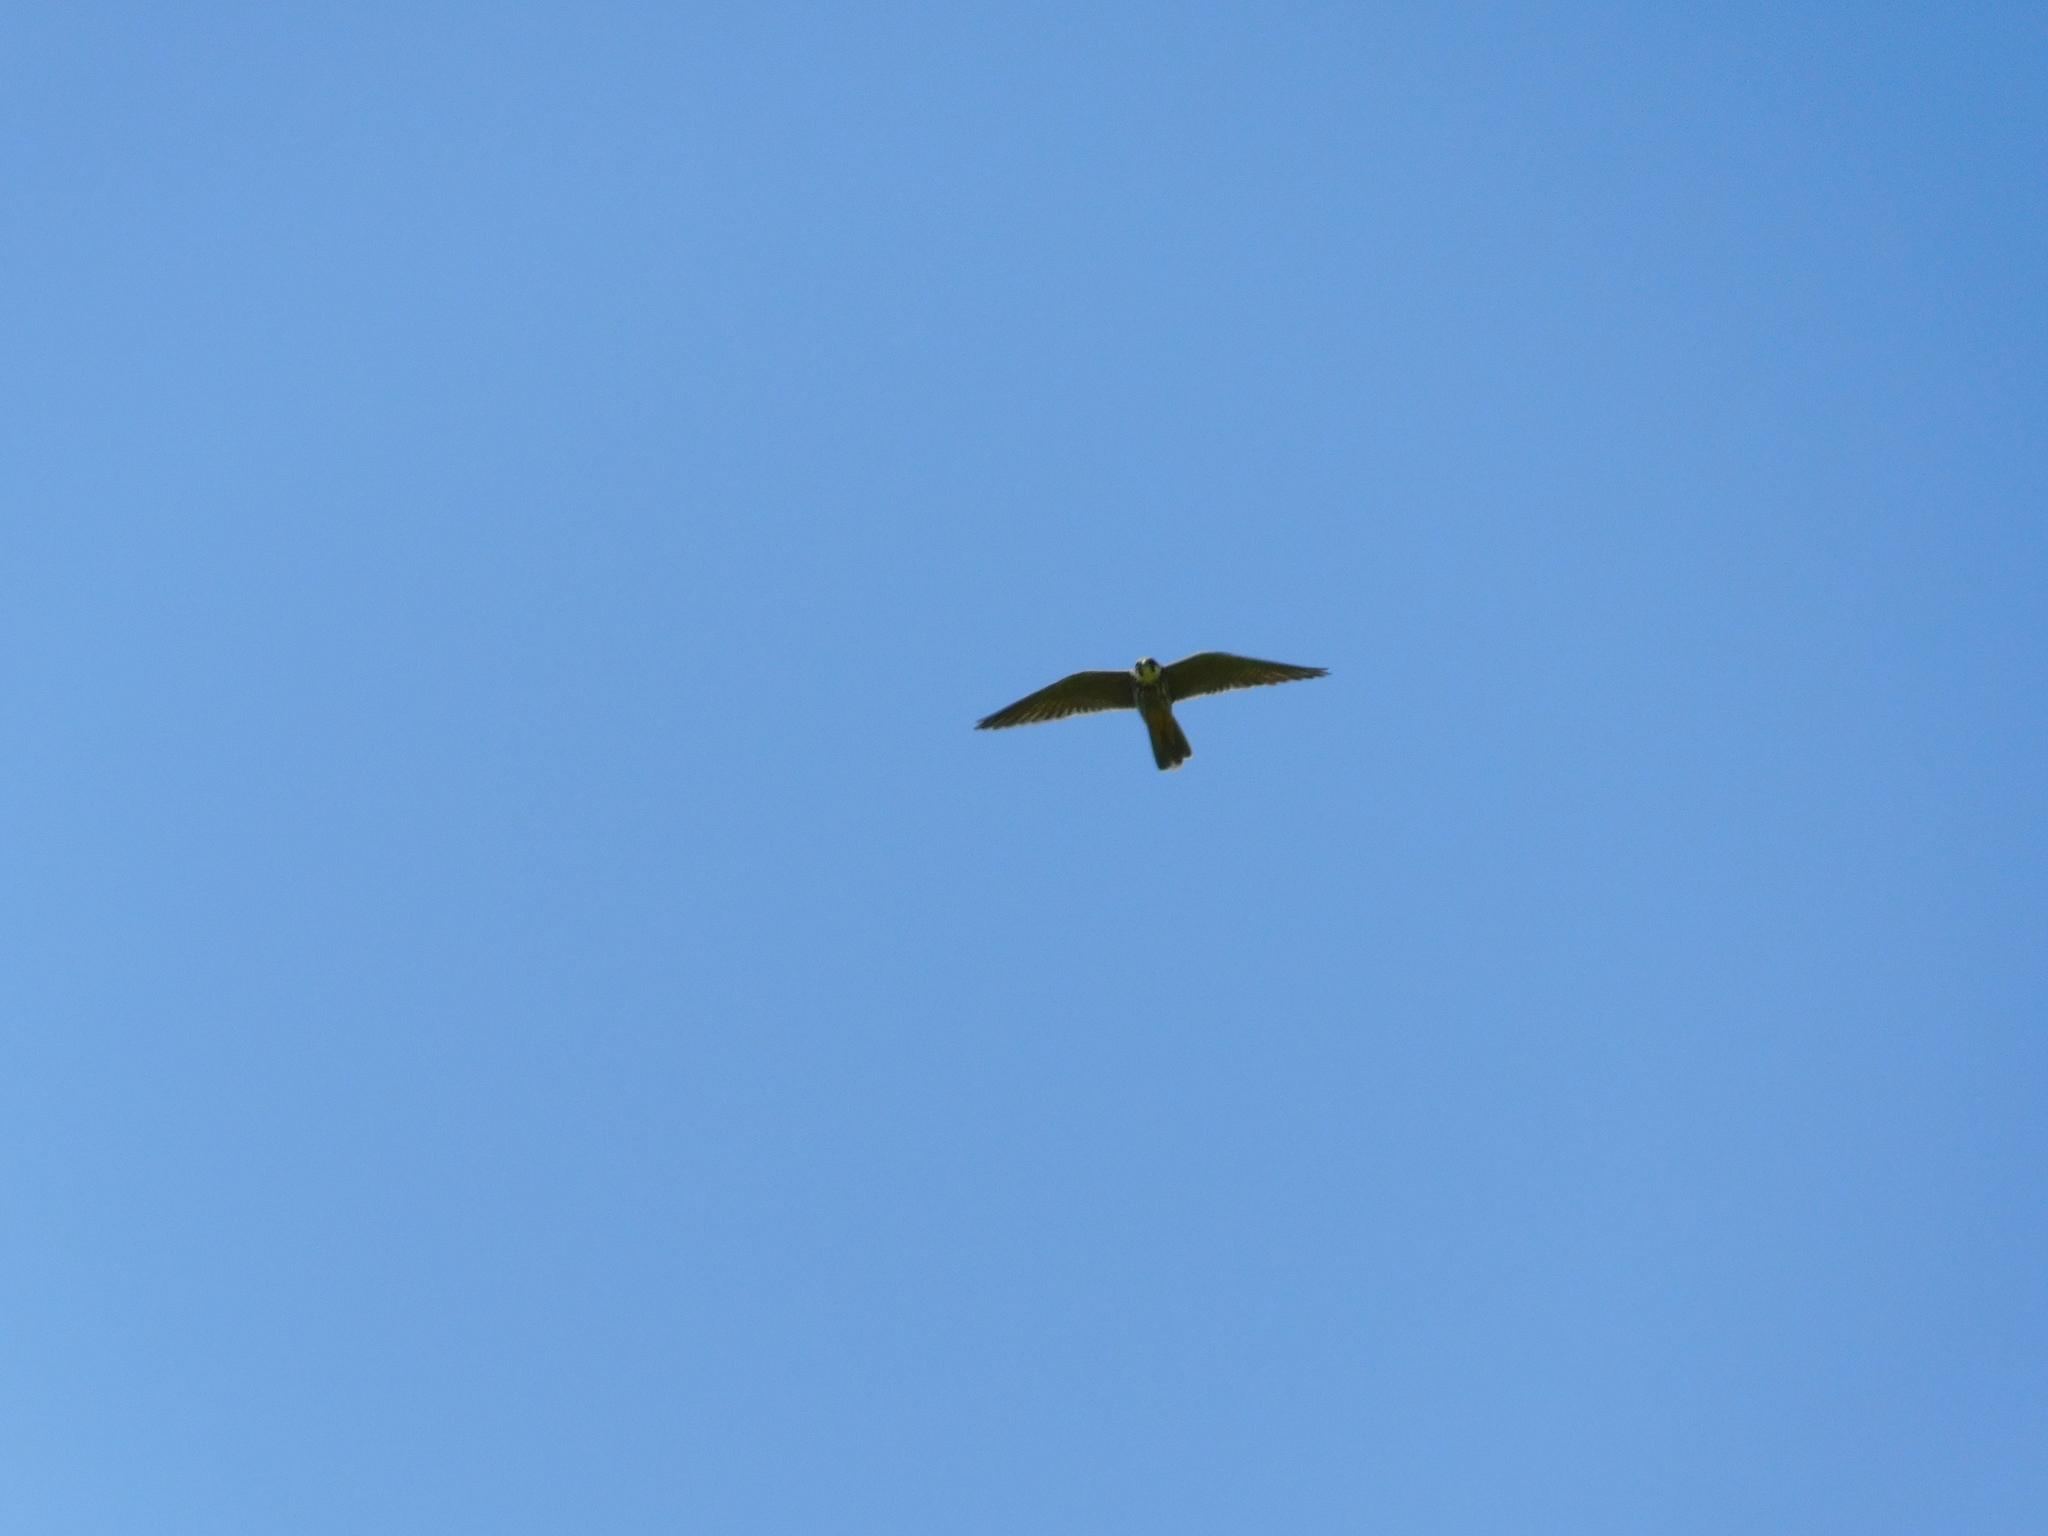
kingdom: Animalia
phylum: Chordata
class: Aves
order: Falconiformes
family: Falconidae
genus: Falco
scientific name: Falco subbuteo
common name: Eurasian hobby
